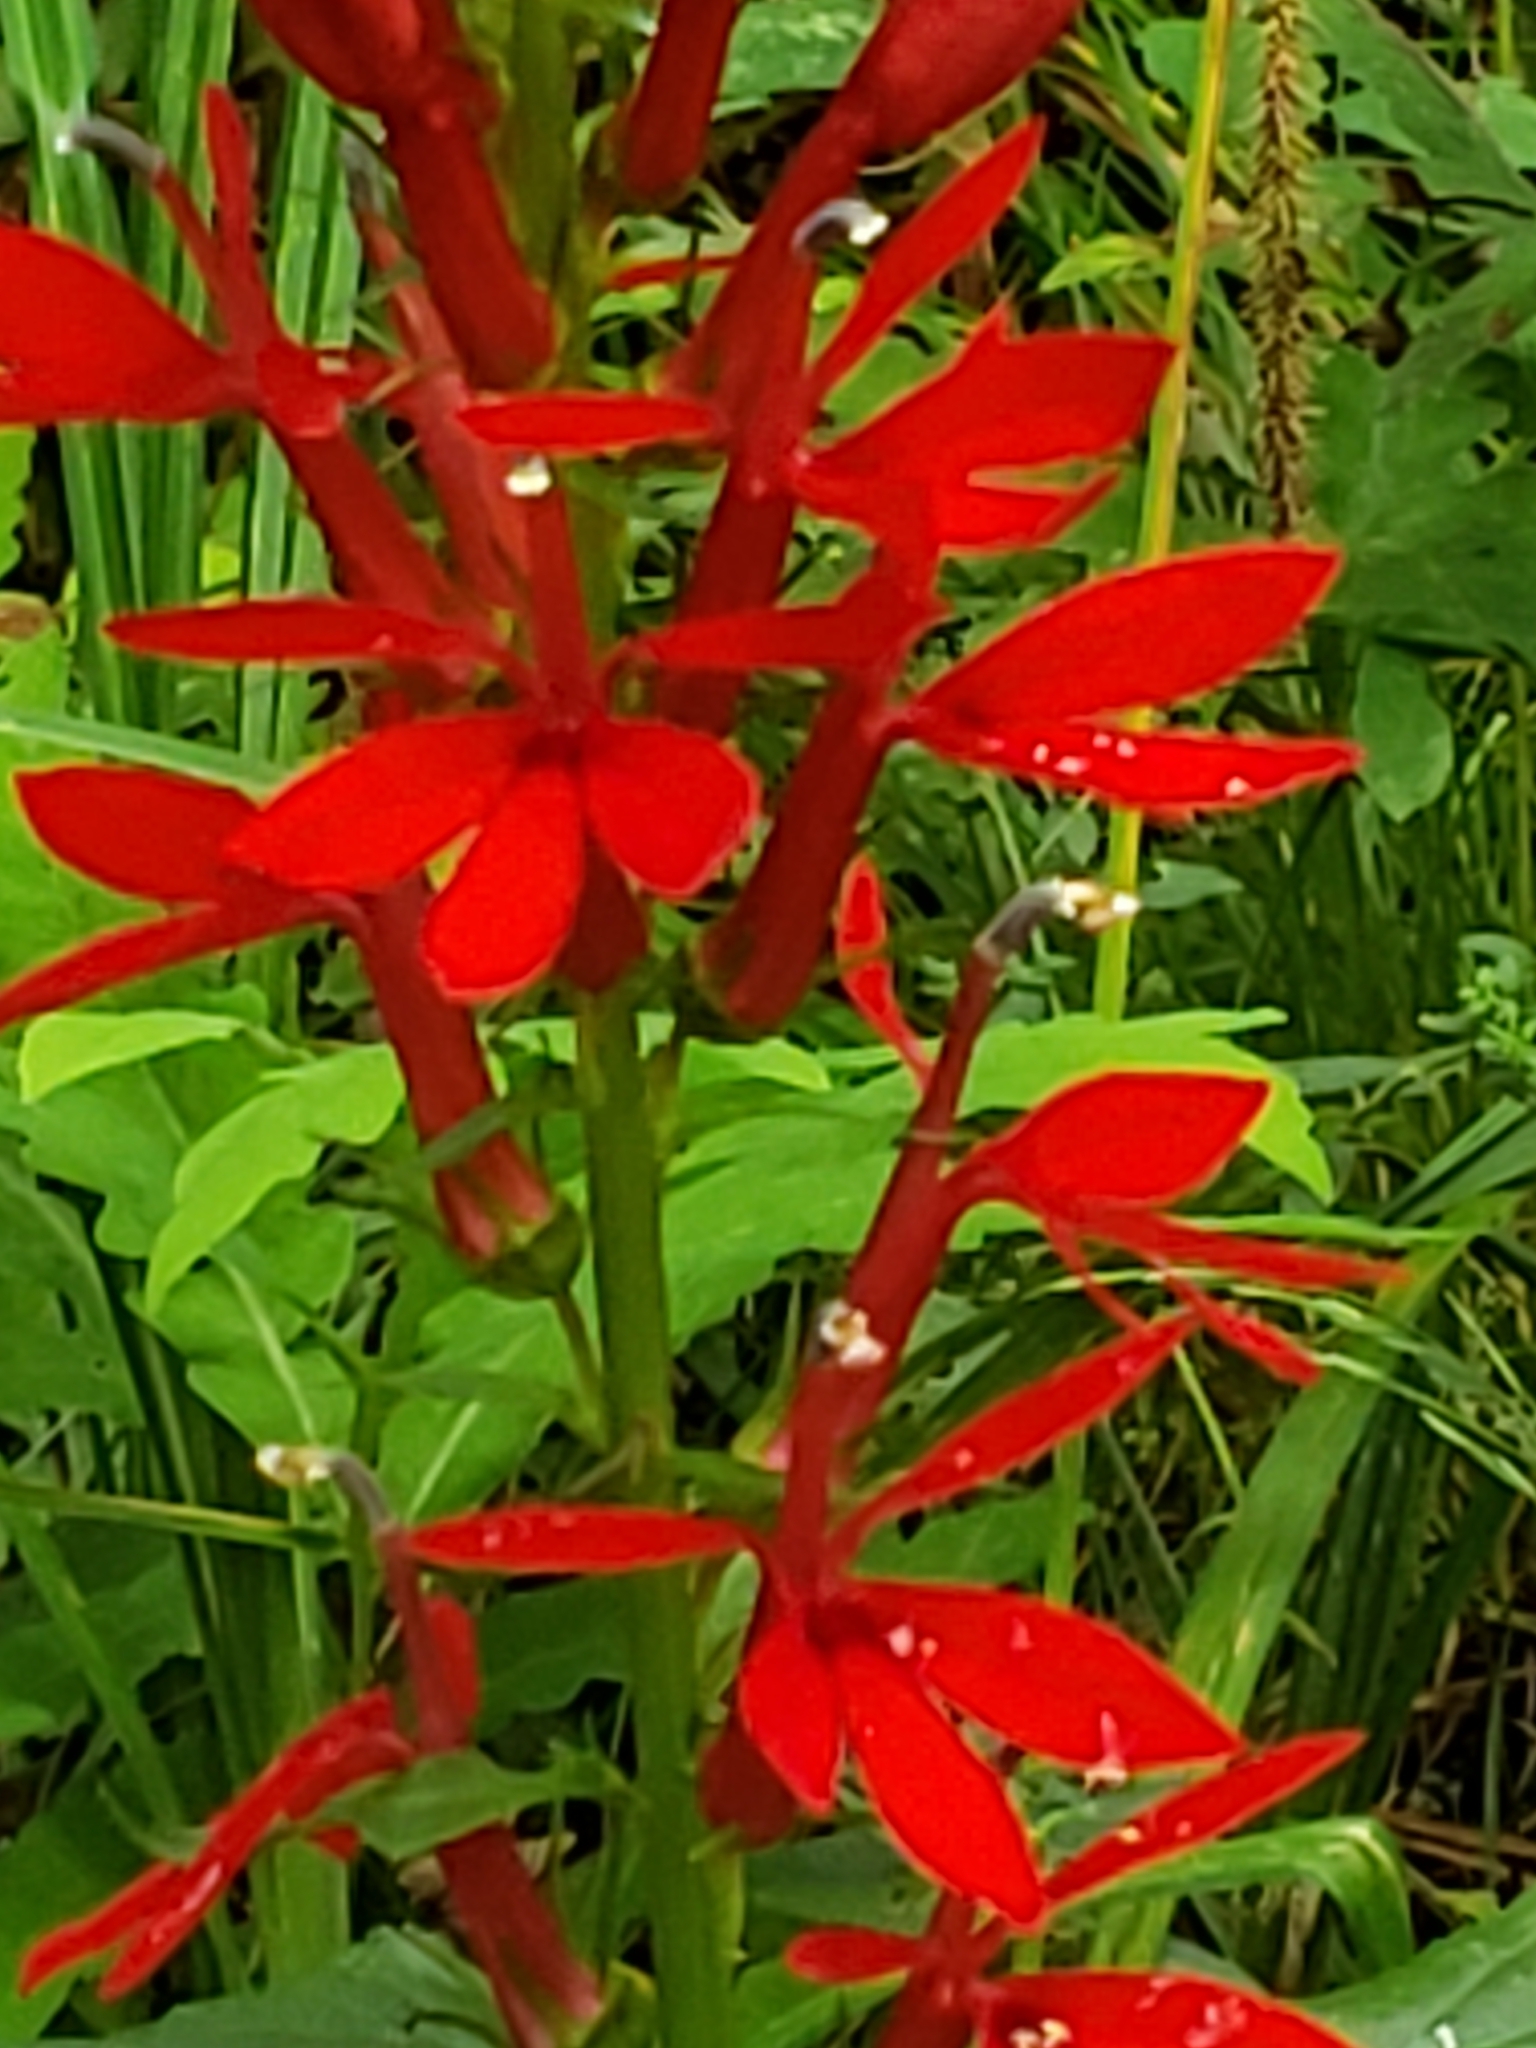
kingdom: Plantae
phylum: Tracheophyta
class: Magnoliopsida
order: Asterales
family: Campanulaceae
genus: Lobelia
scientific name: Lobelia cardinalis
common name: Cardinal flower
